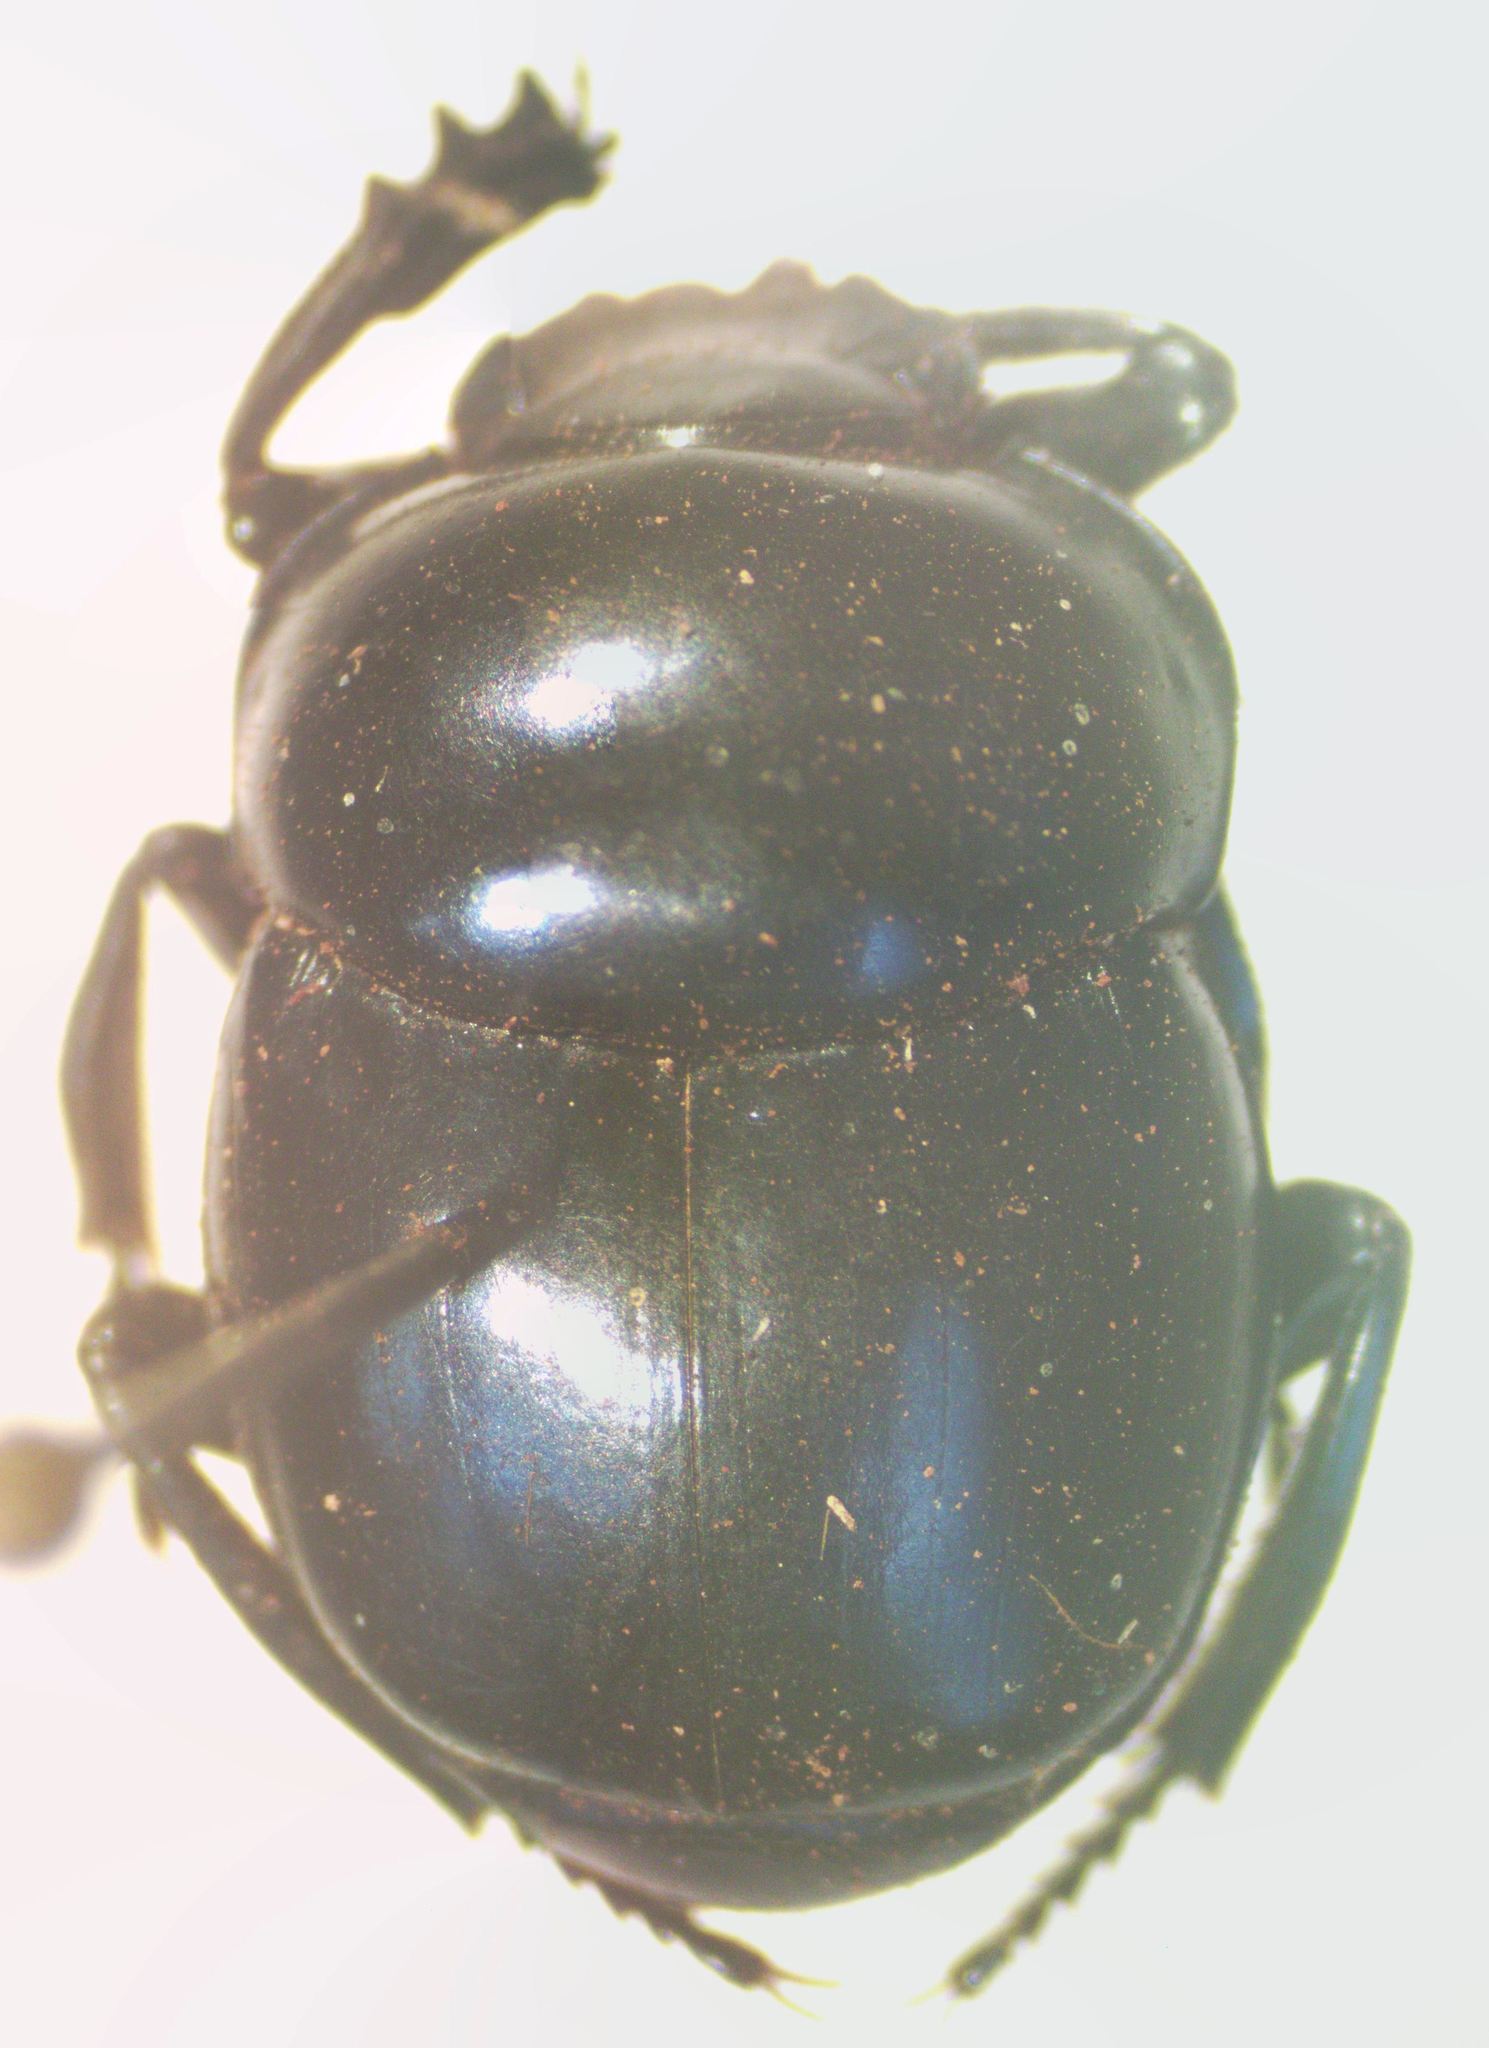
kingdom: Animalia
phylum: Arthropoda
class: Insecta
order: Coleoptera
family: Scarabaeidae
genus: Canthon
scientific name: Canthon deyrollei
